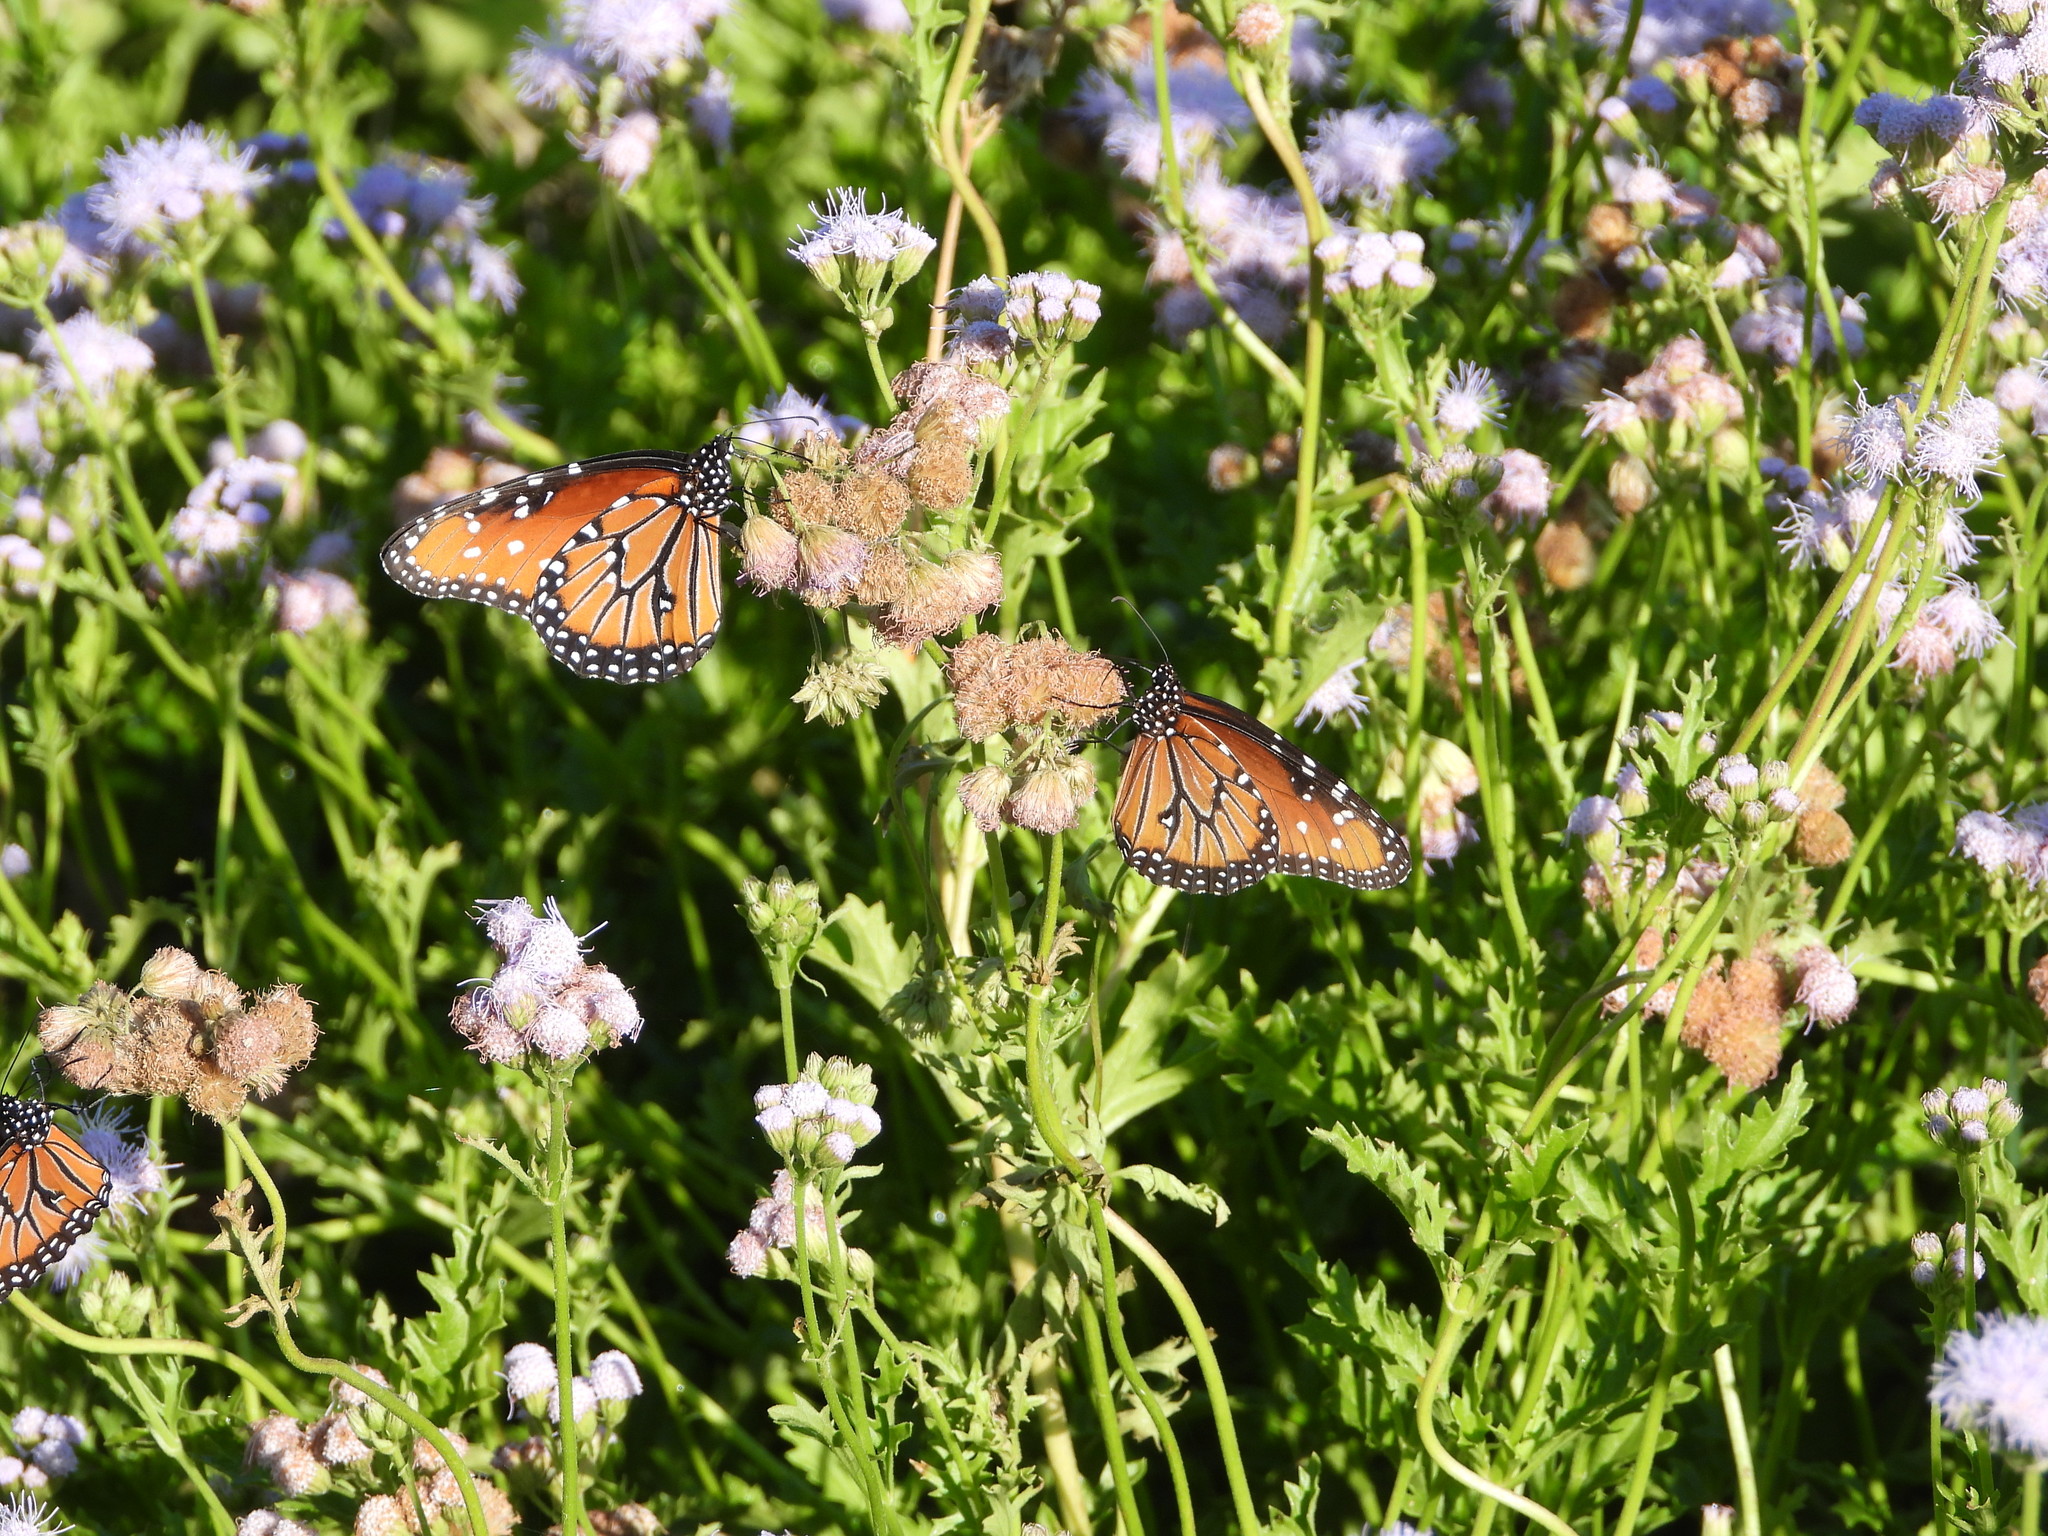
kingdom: Animalia
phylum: Arthropoda
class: Insecta
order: Lepidoptera
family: Nymphalidae
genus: Danaus
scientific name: Danaus gilippus
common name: Queen
